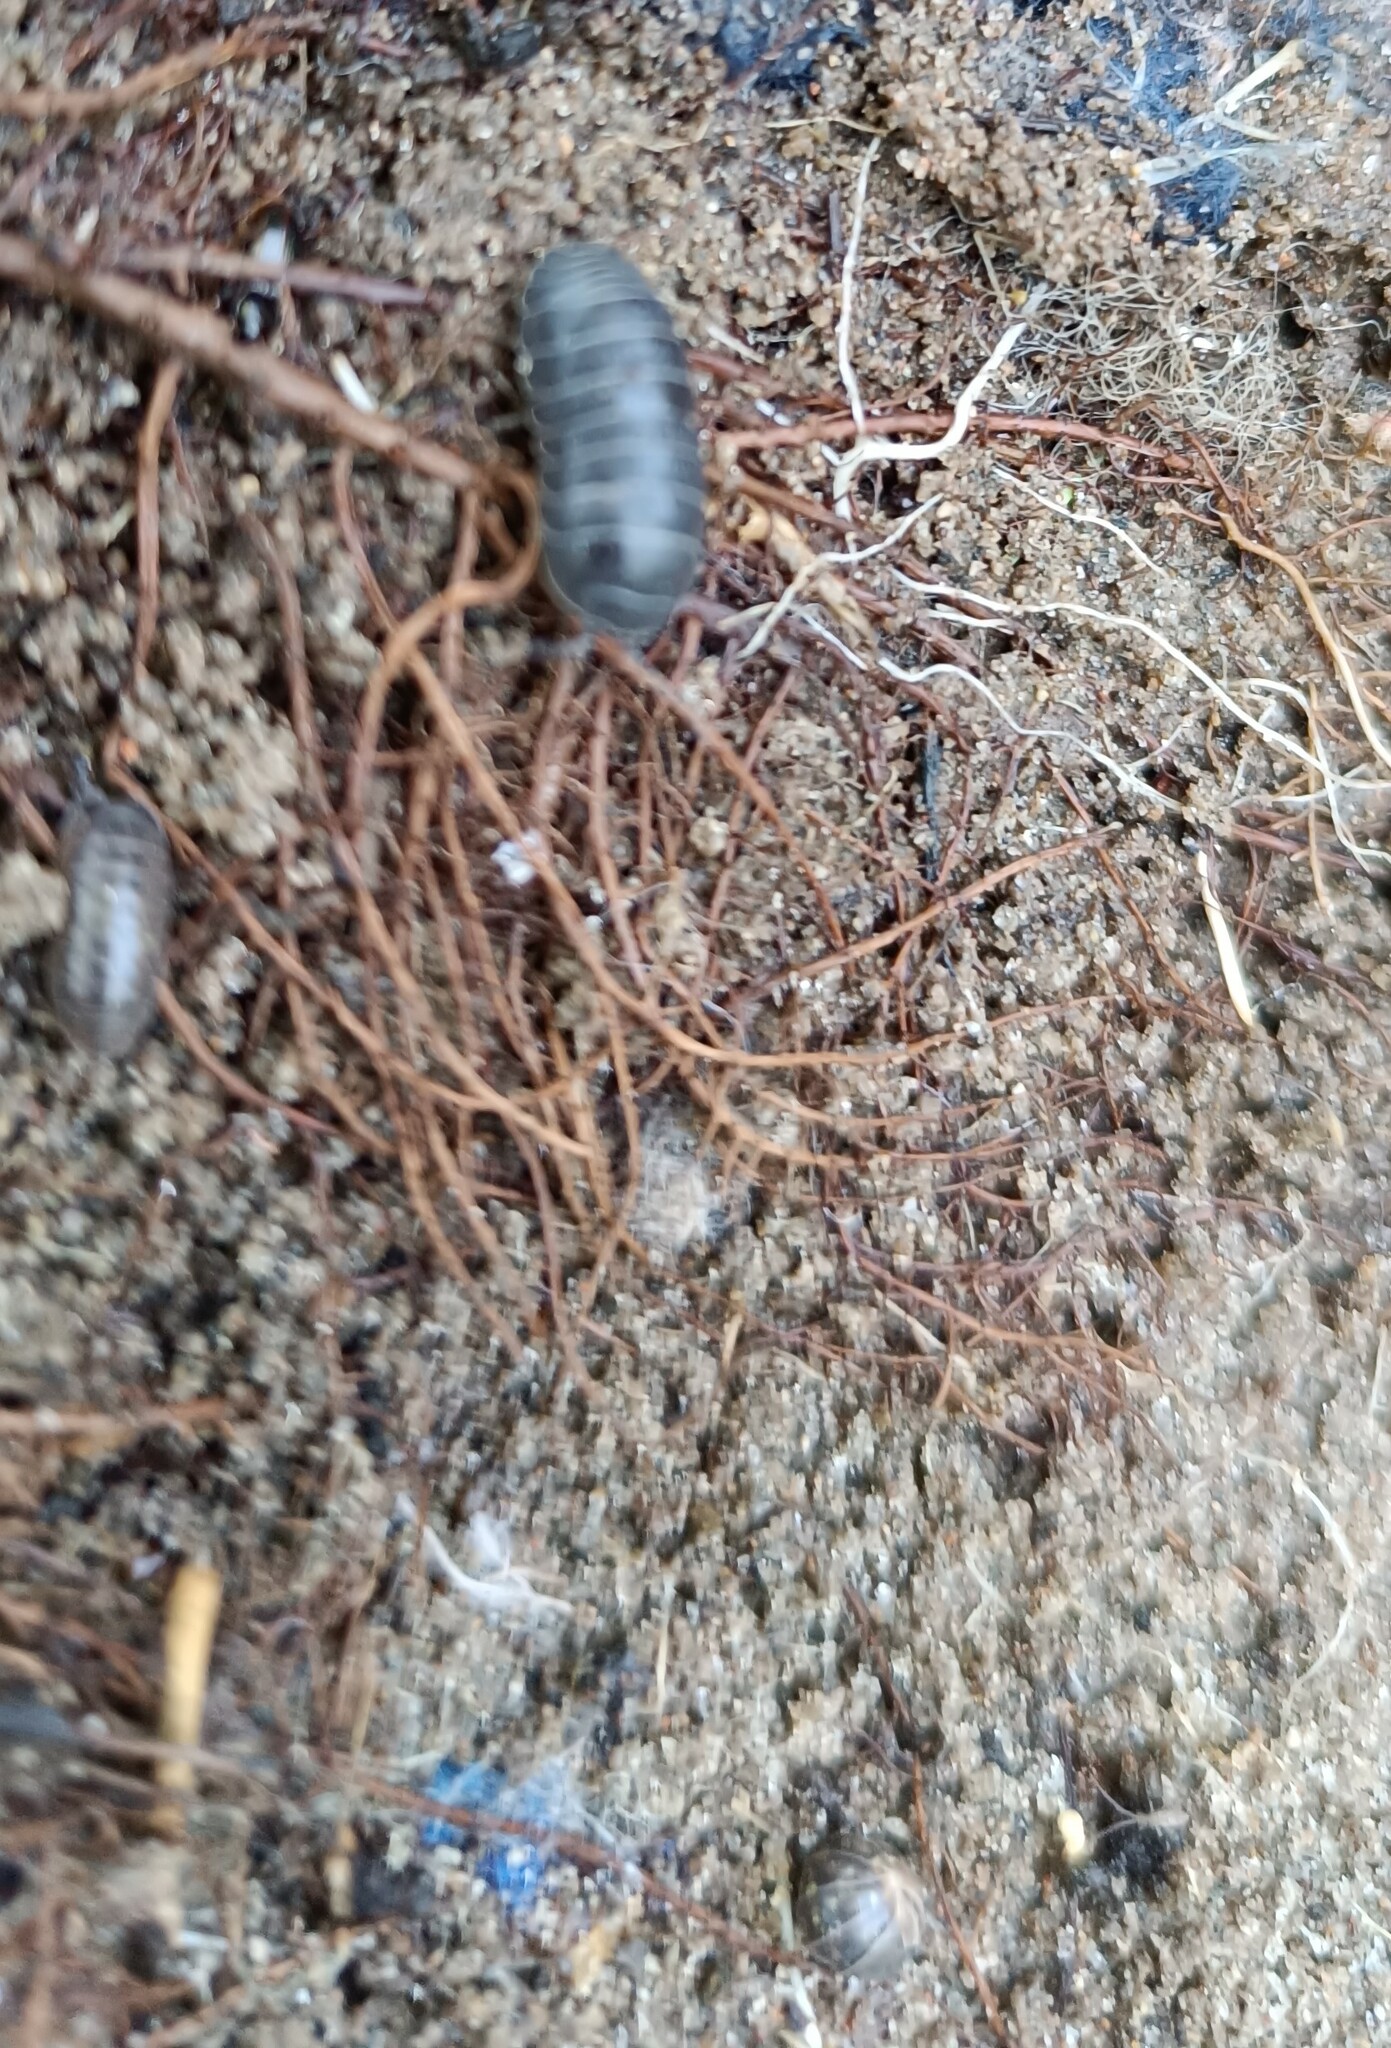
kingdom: Animalia
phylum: Arthropoda
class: Malacostraca
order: Isopoda
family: Armadillidiidae
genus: Armadillidium
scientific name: Armadillidium vulgare
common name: Common pill woodlouse
